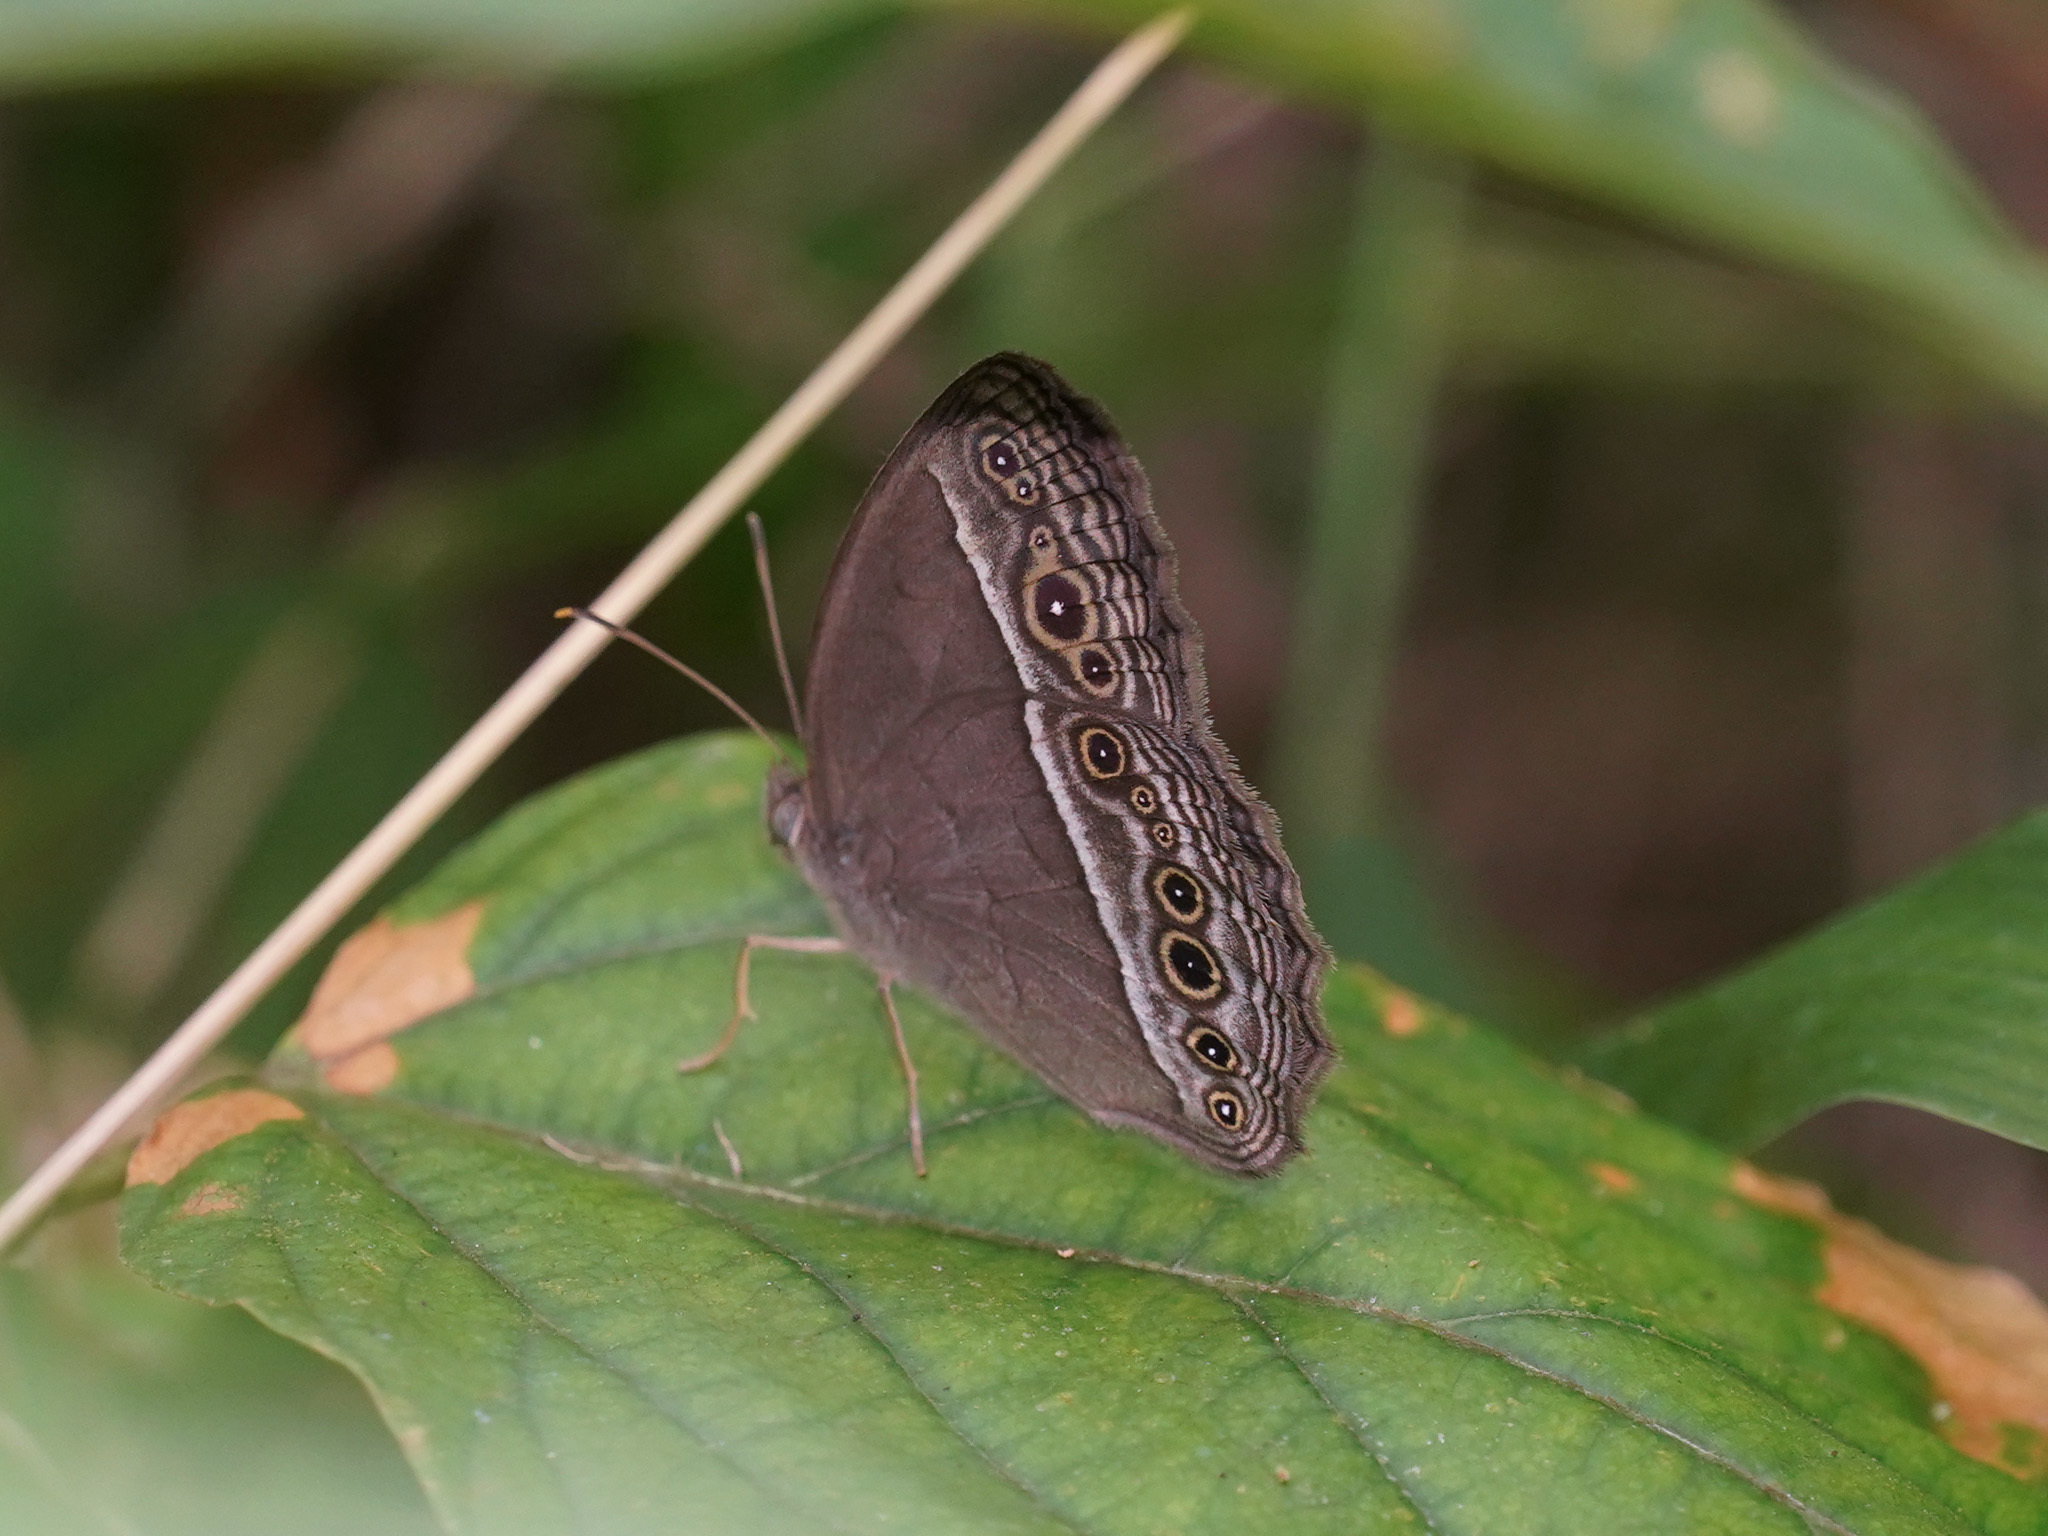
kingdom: Animalia
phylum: Arthropoda
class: Insecta
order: Lepidoptera
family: Nymphalidae
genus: Mycalesis
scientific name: Mycalesis visala
